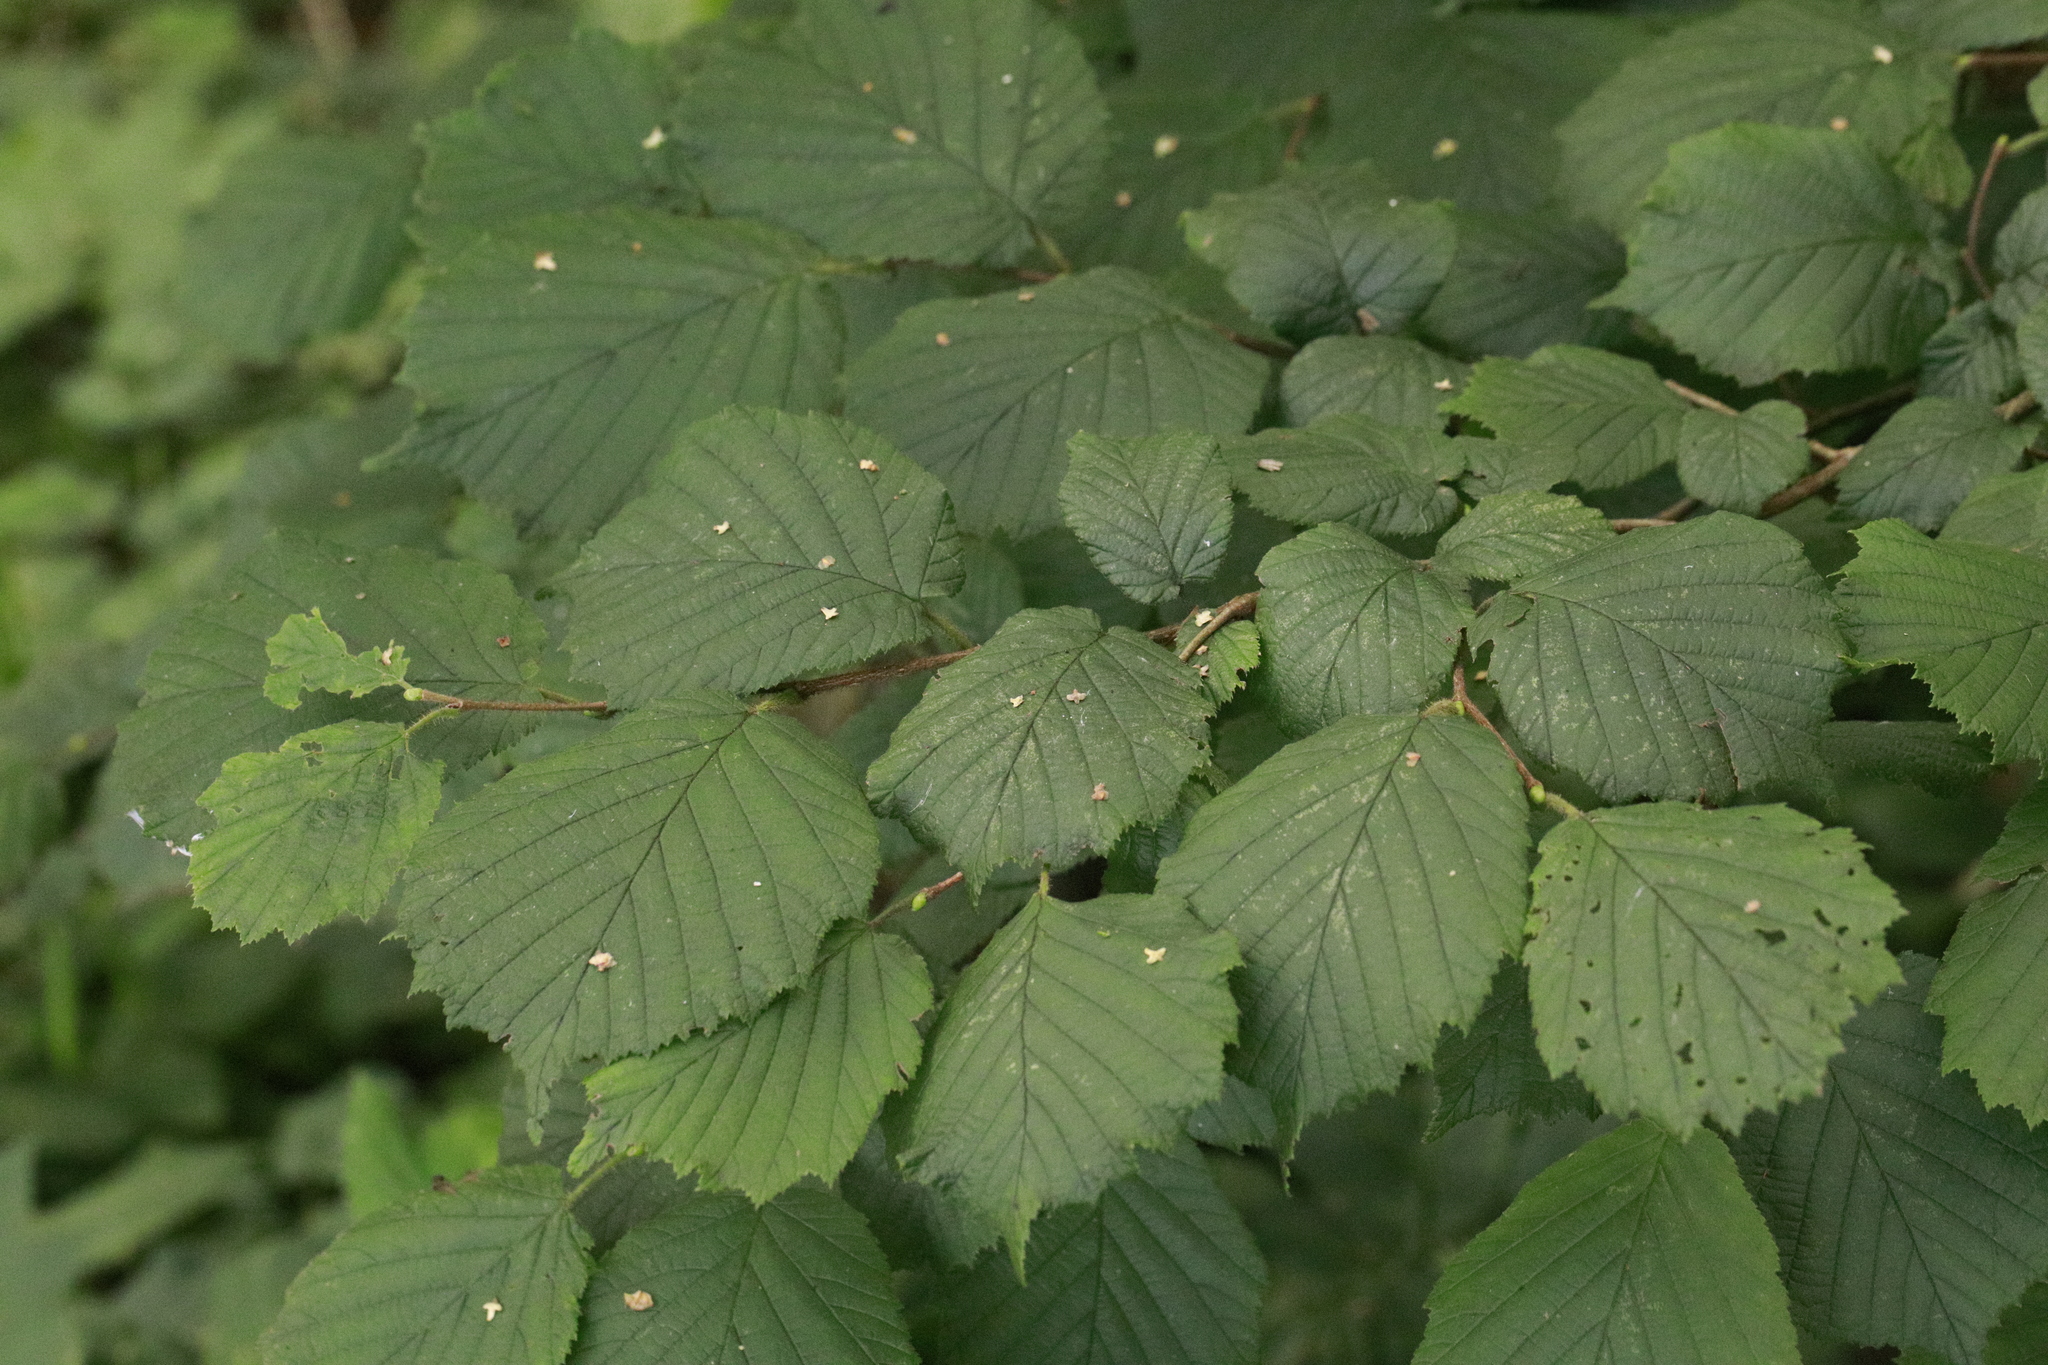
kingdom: Plantae
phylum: Tracheophyta
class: Magnoliopsida
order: Fagales
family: Betulaceae
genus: Corylus
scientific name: Corylus avellana
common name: European hazel
